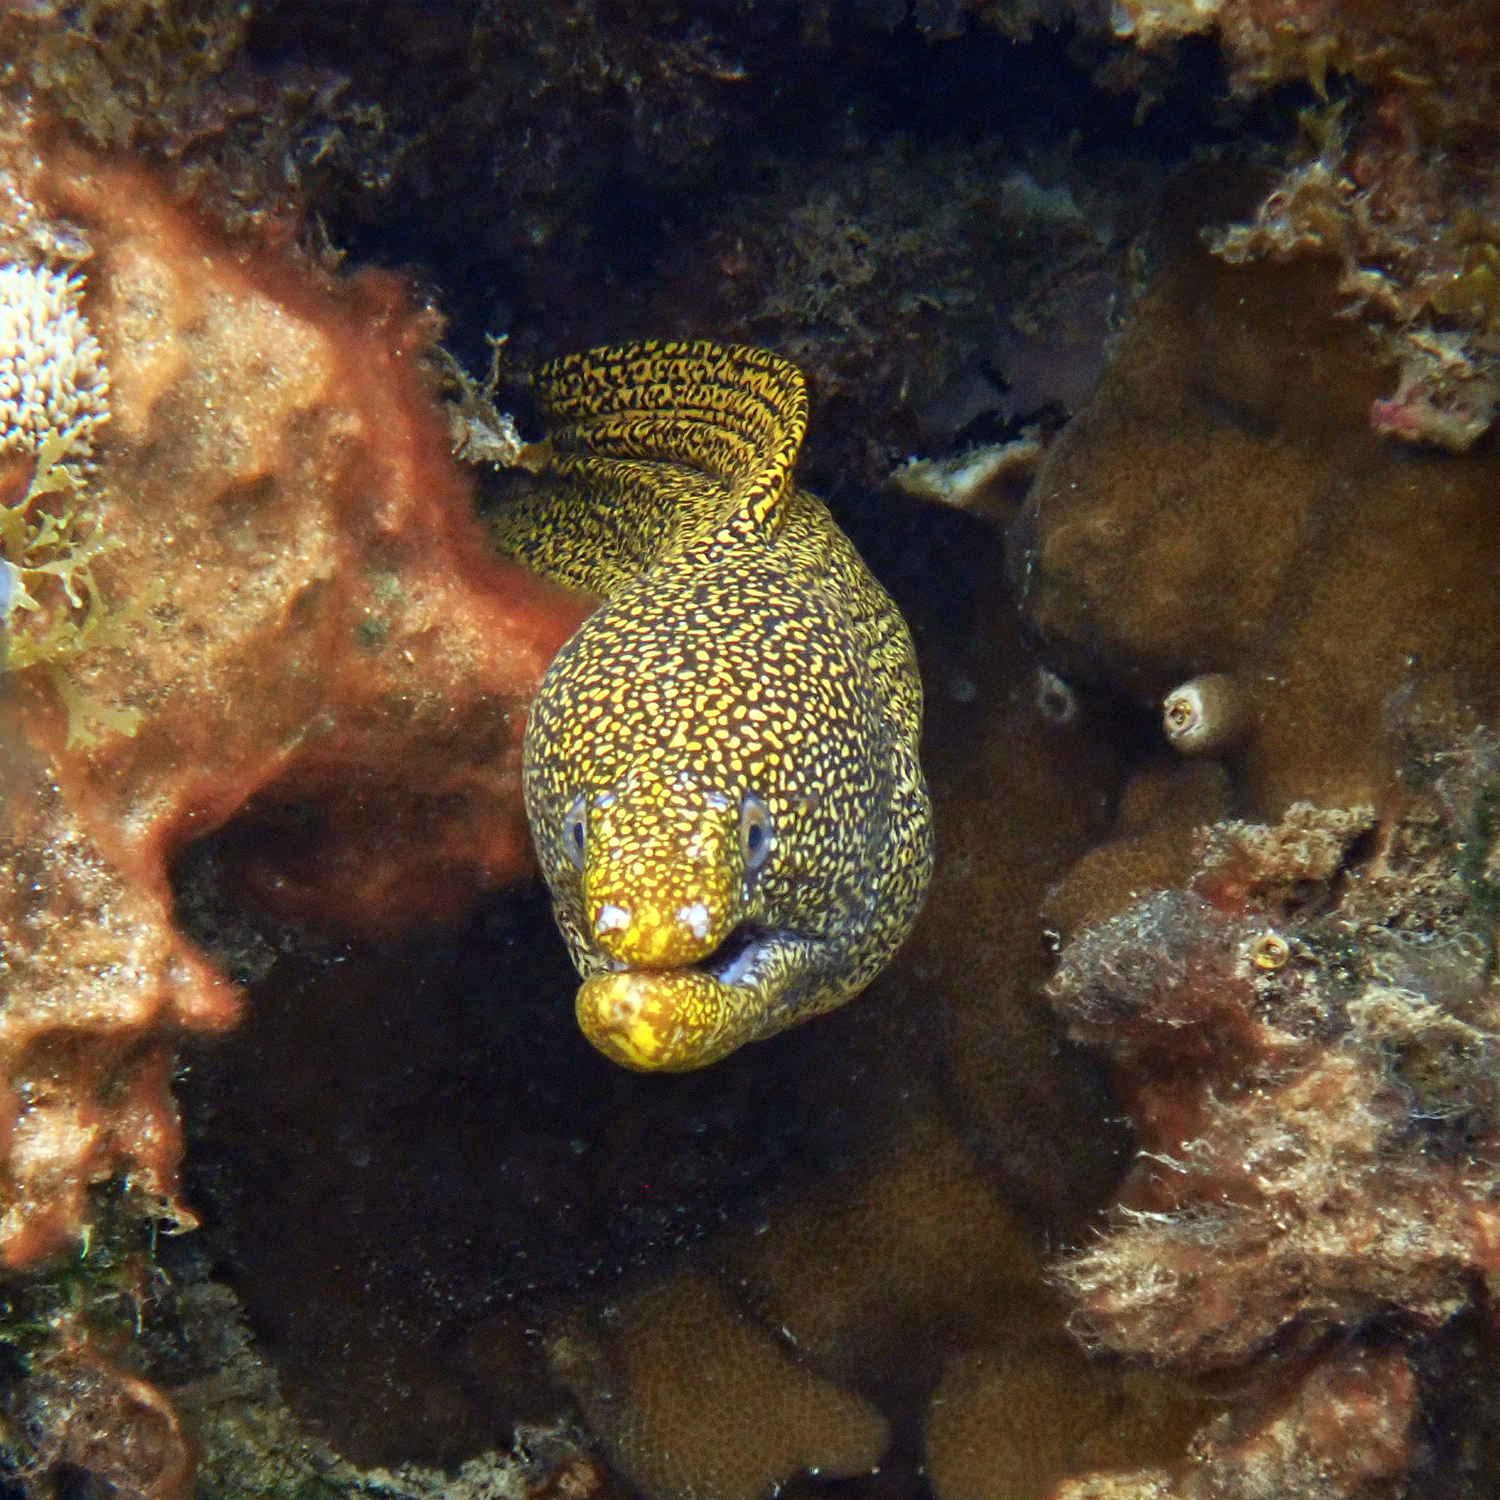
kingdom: Animalia
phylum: Chordata
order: Anguilliformes
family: Muraenidae
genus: Gymnothorax
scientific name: Gymnothorax eurostus
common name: Stout moray
